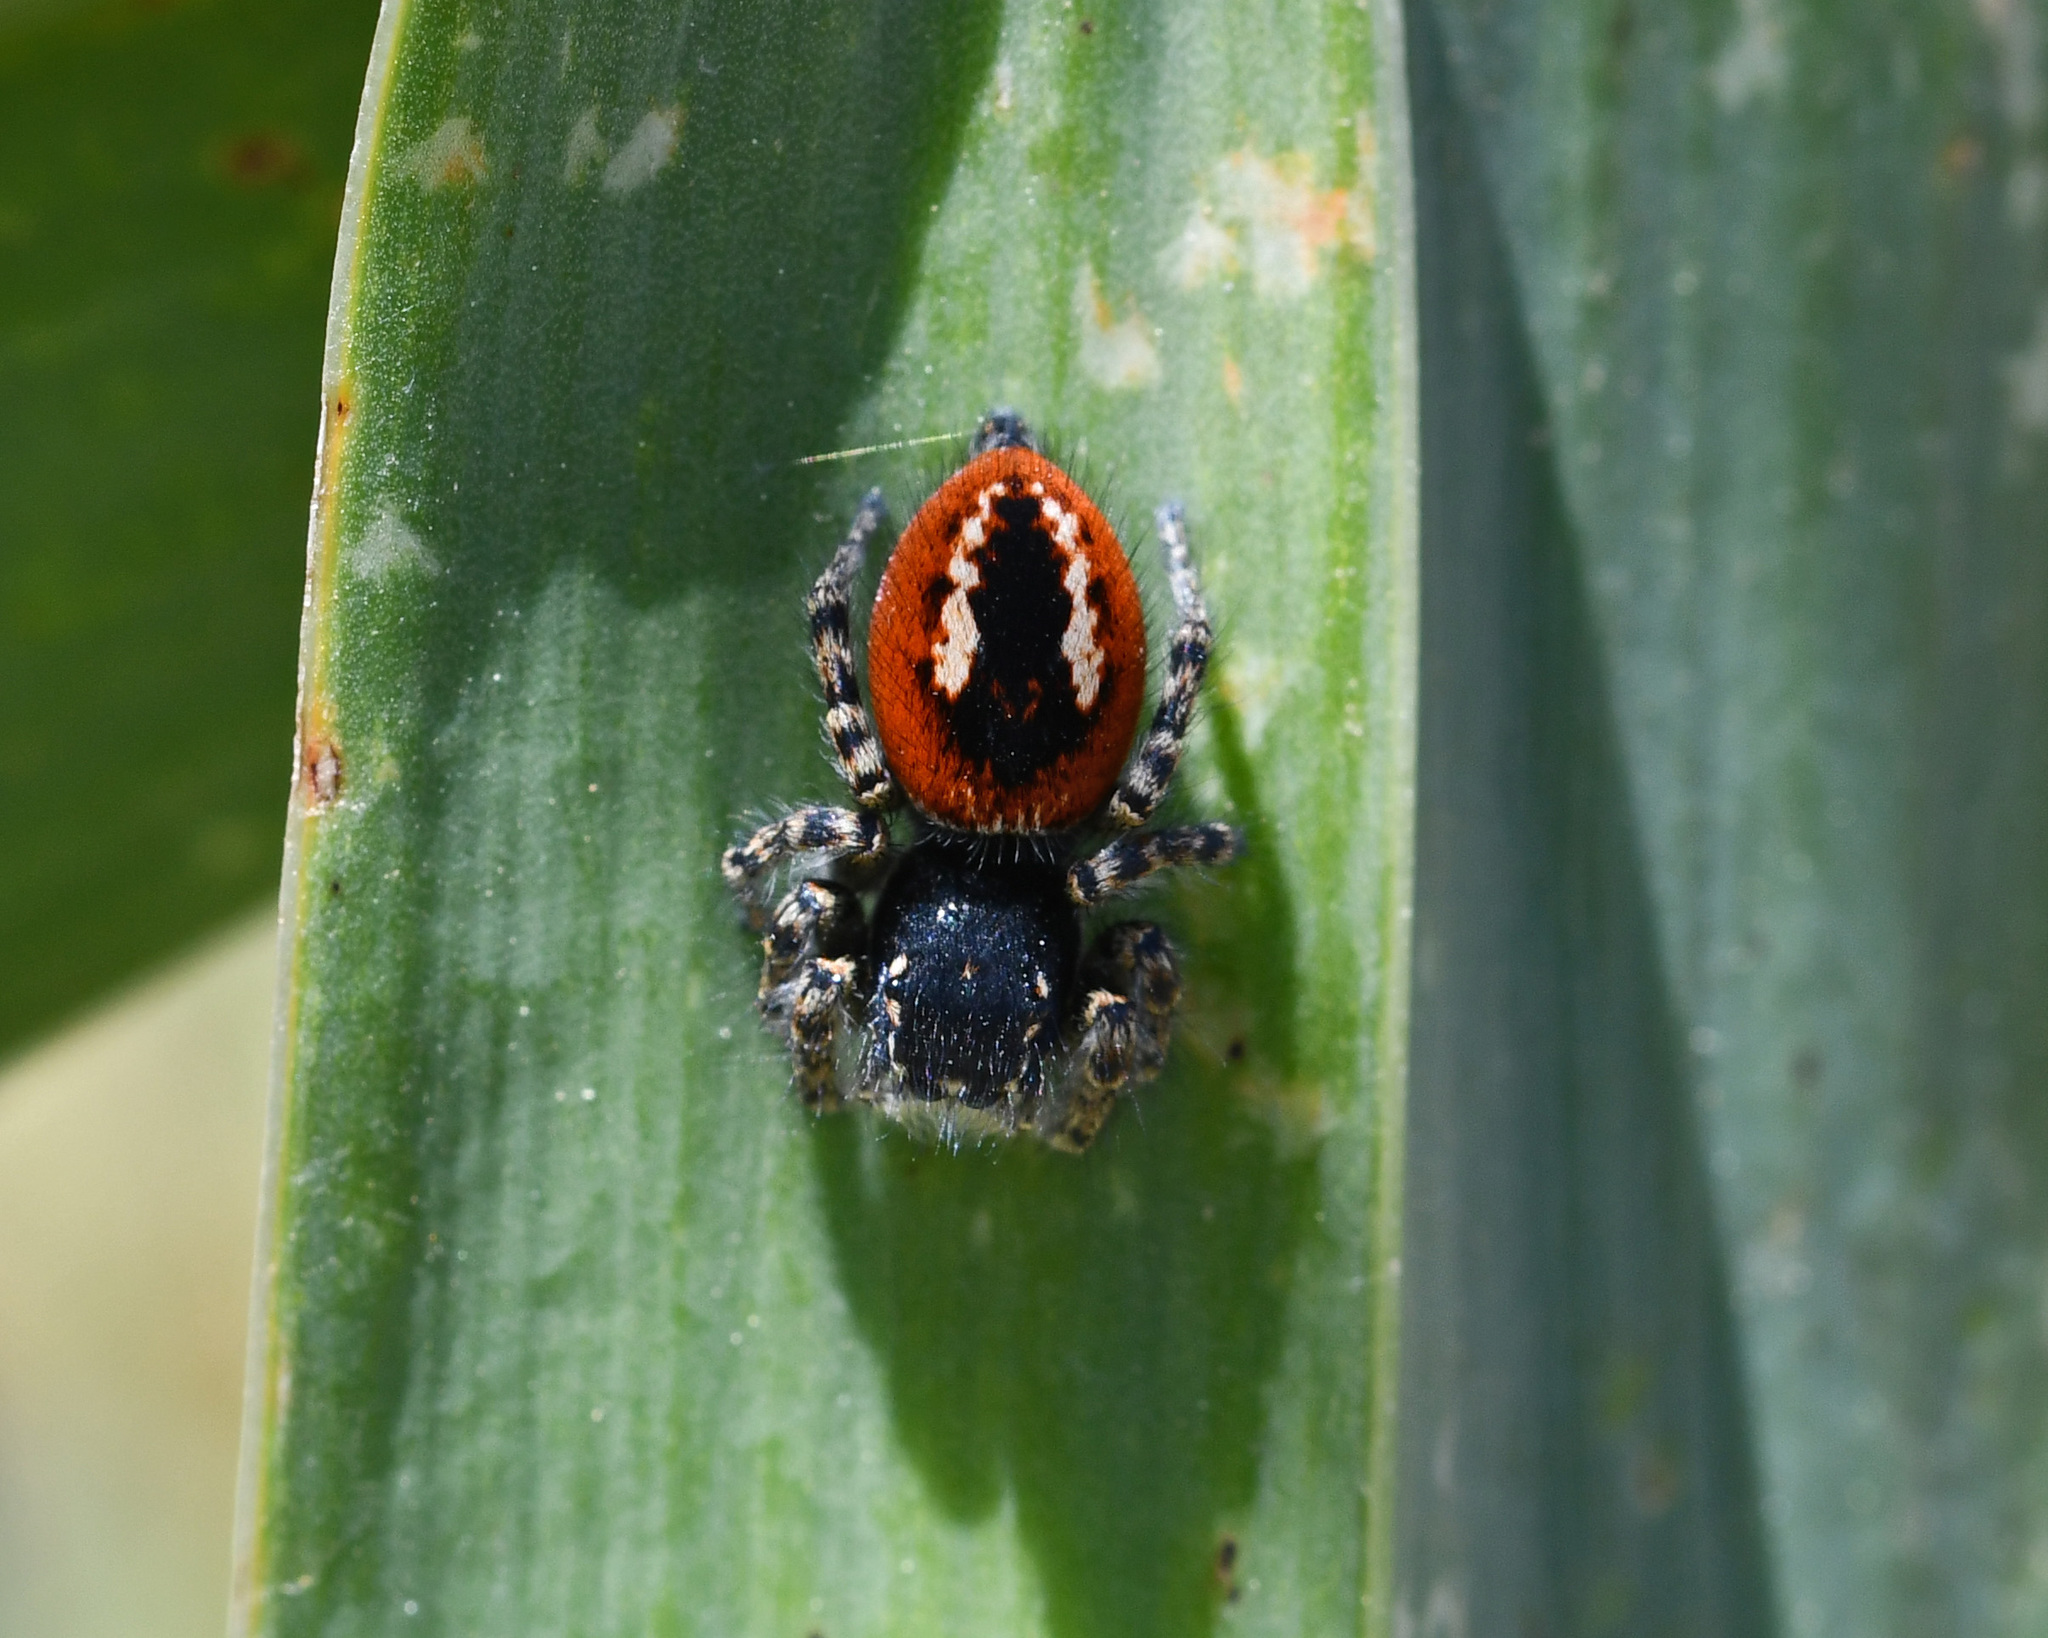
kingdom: Animalia
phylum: Arthropoda
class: Arachnida
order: Araneae
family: Salticidae
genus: Philaeus
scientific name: Philaeus chrysops
